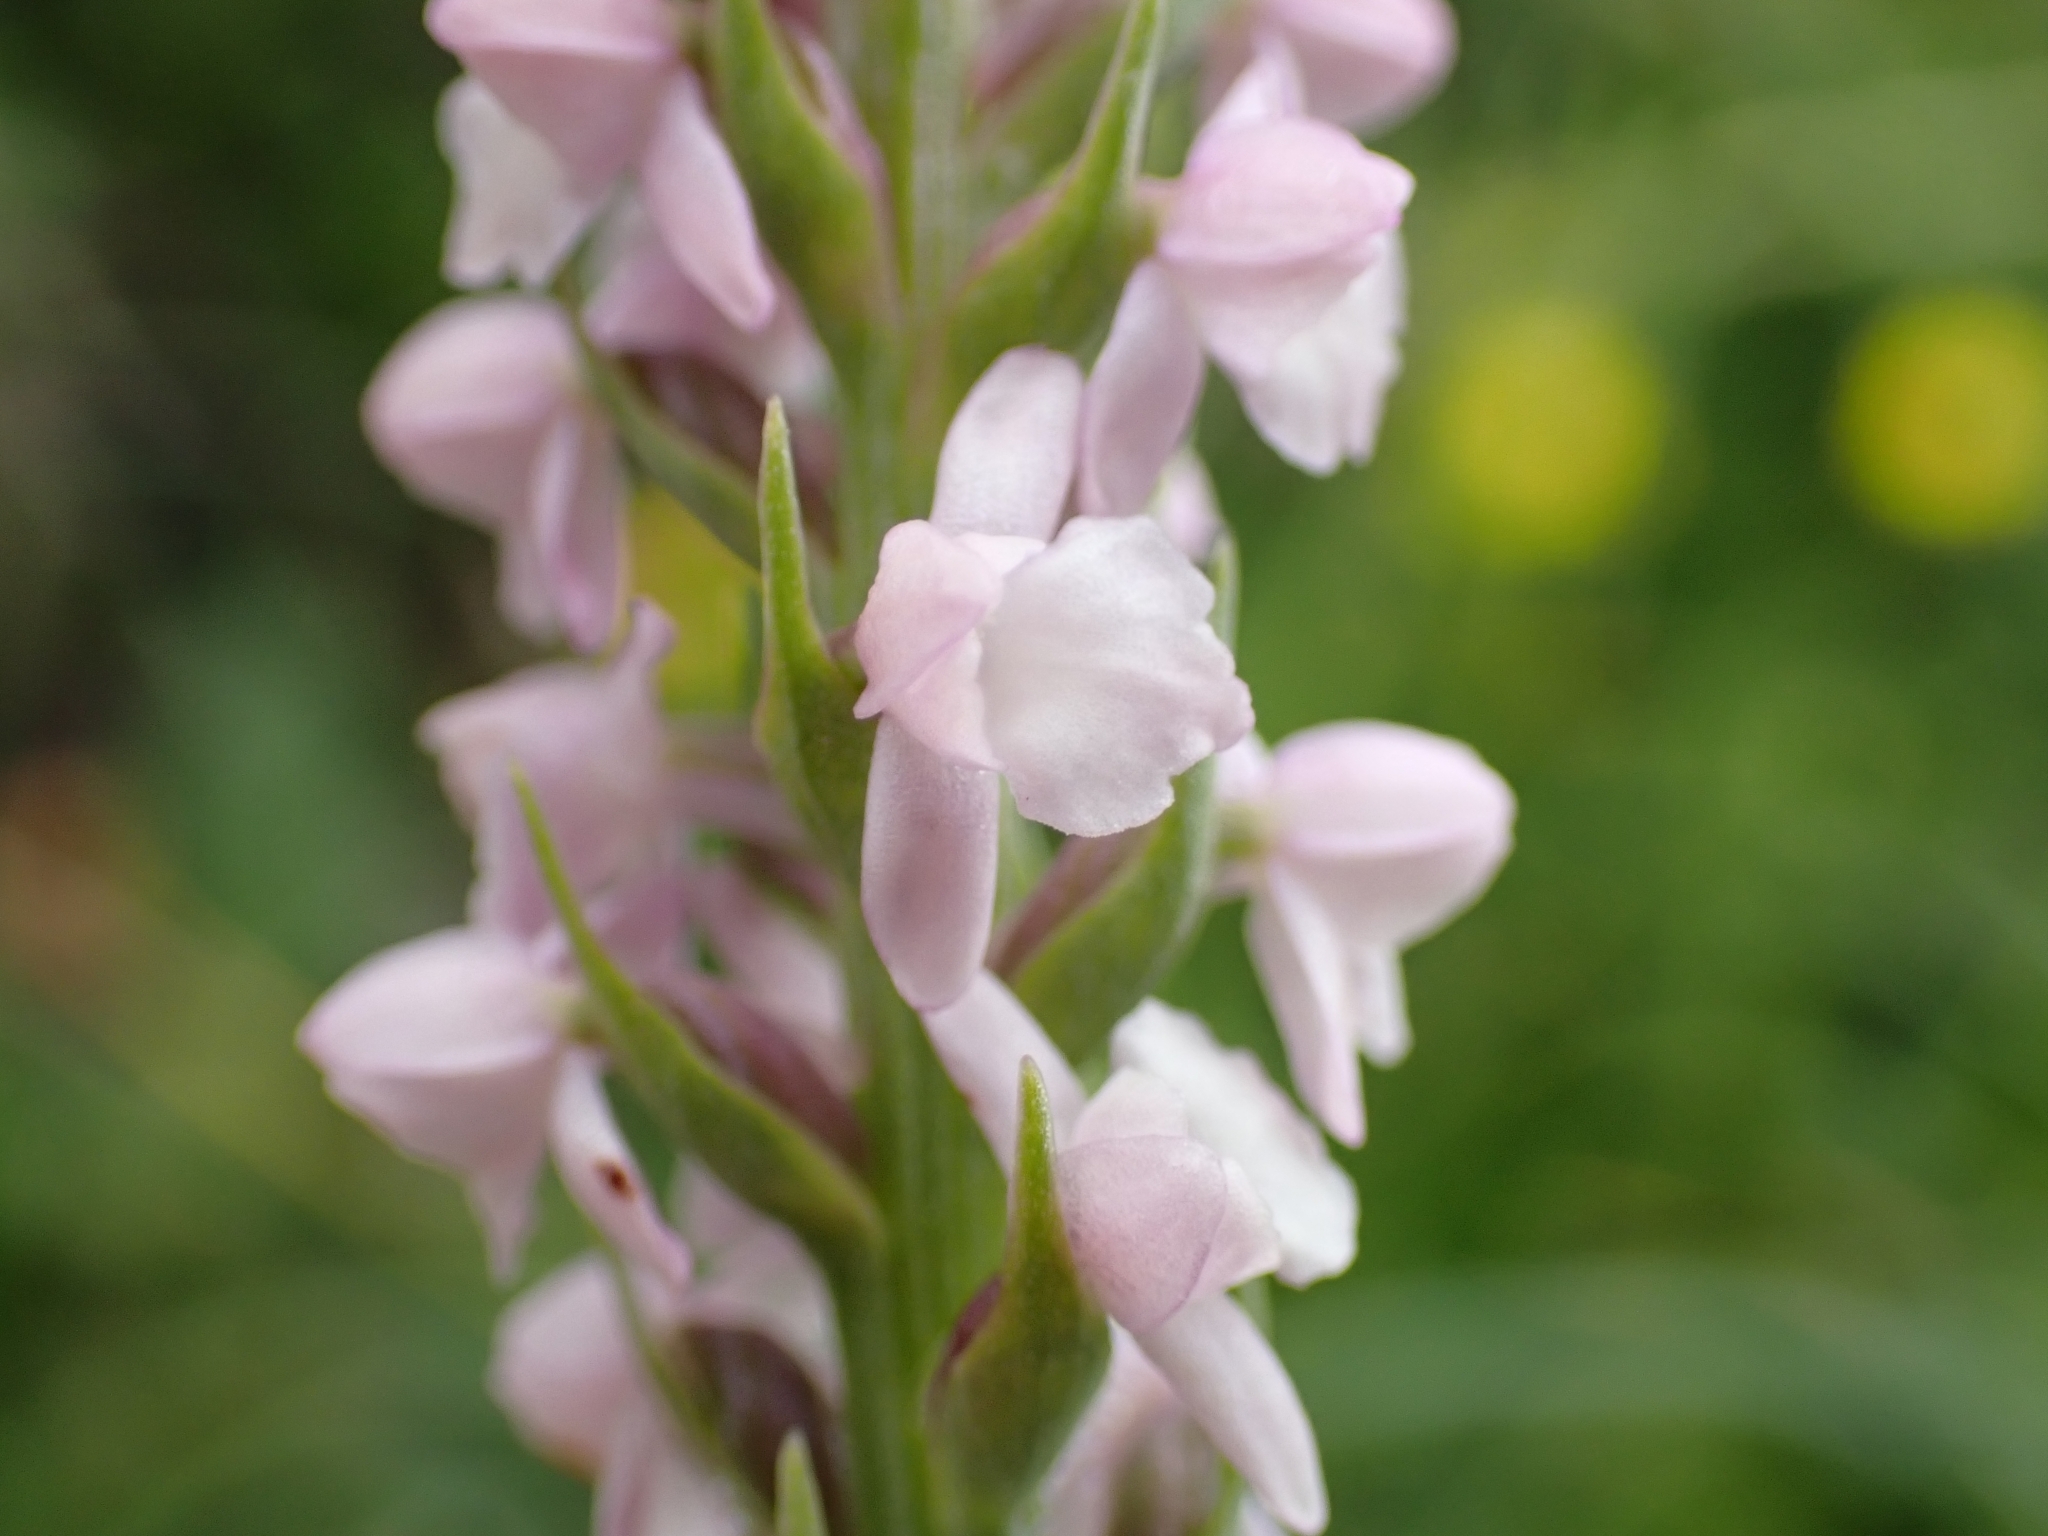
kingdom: Plantae
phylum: Tracheophyta
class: Liliopsida
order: Asparagales
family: Orchidaceae
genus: Gymnadenia
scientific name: Gymnadenia odoratissima
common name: Scented gymnadenia
